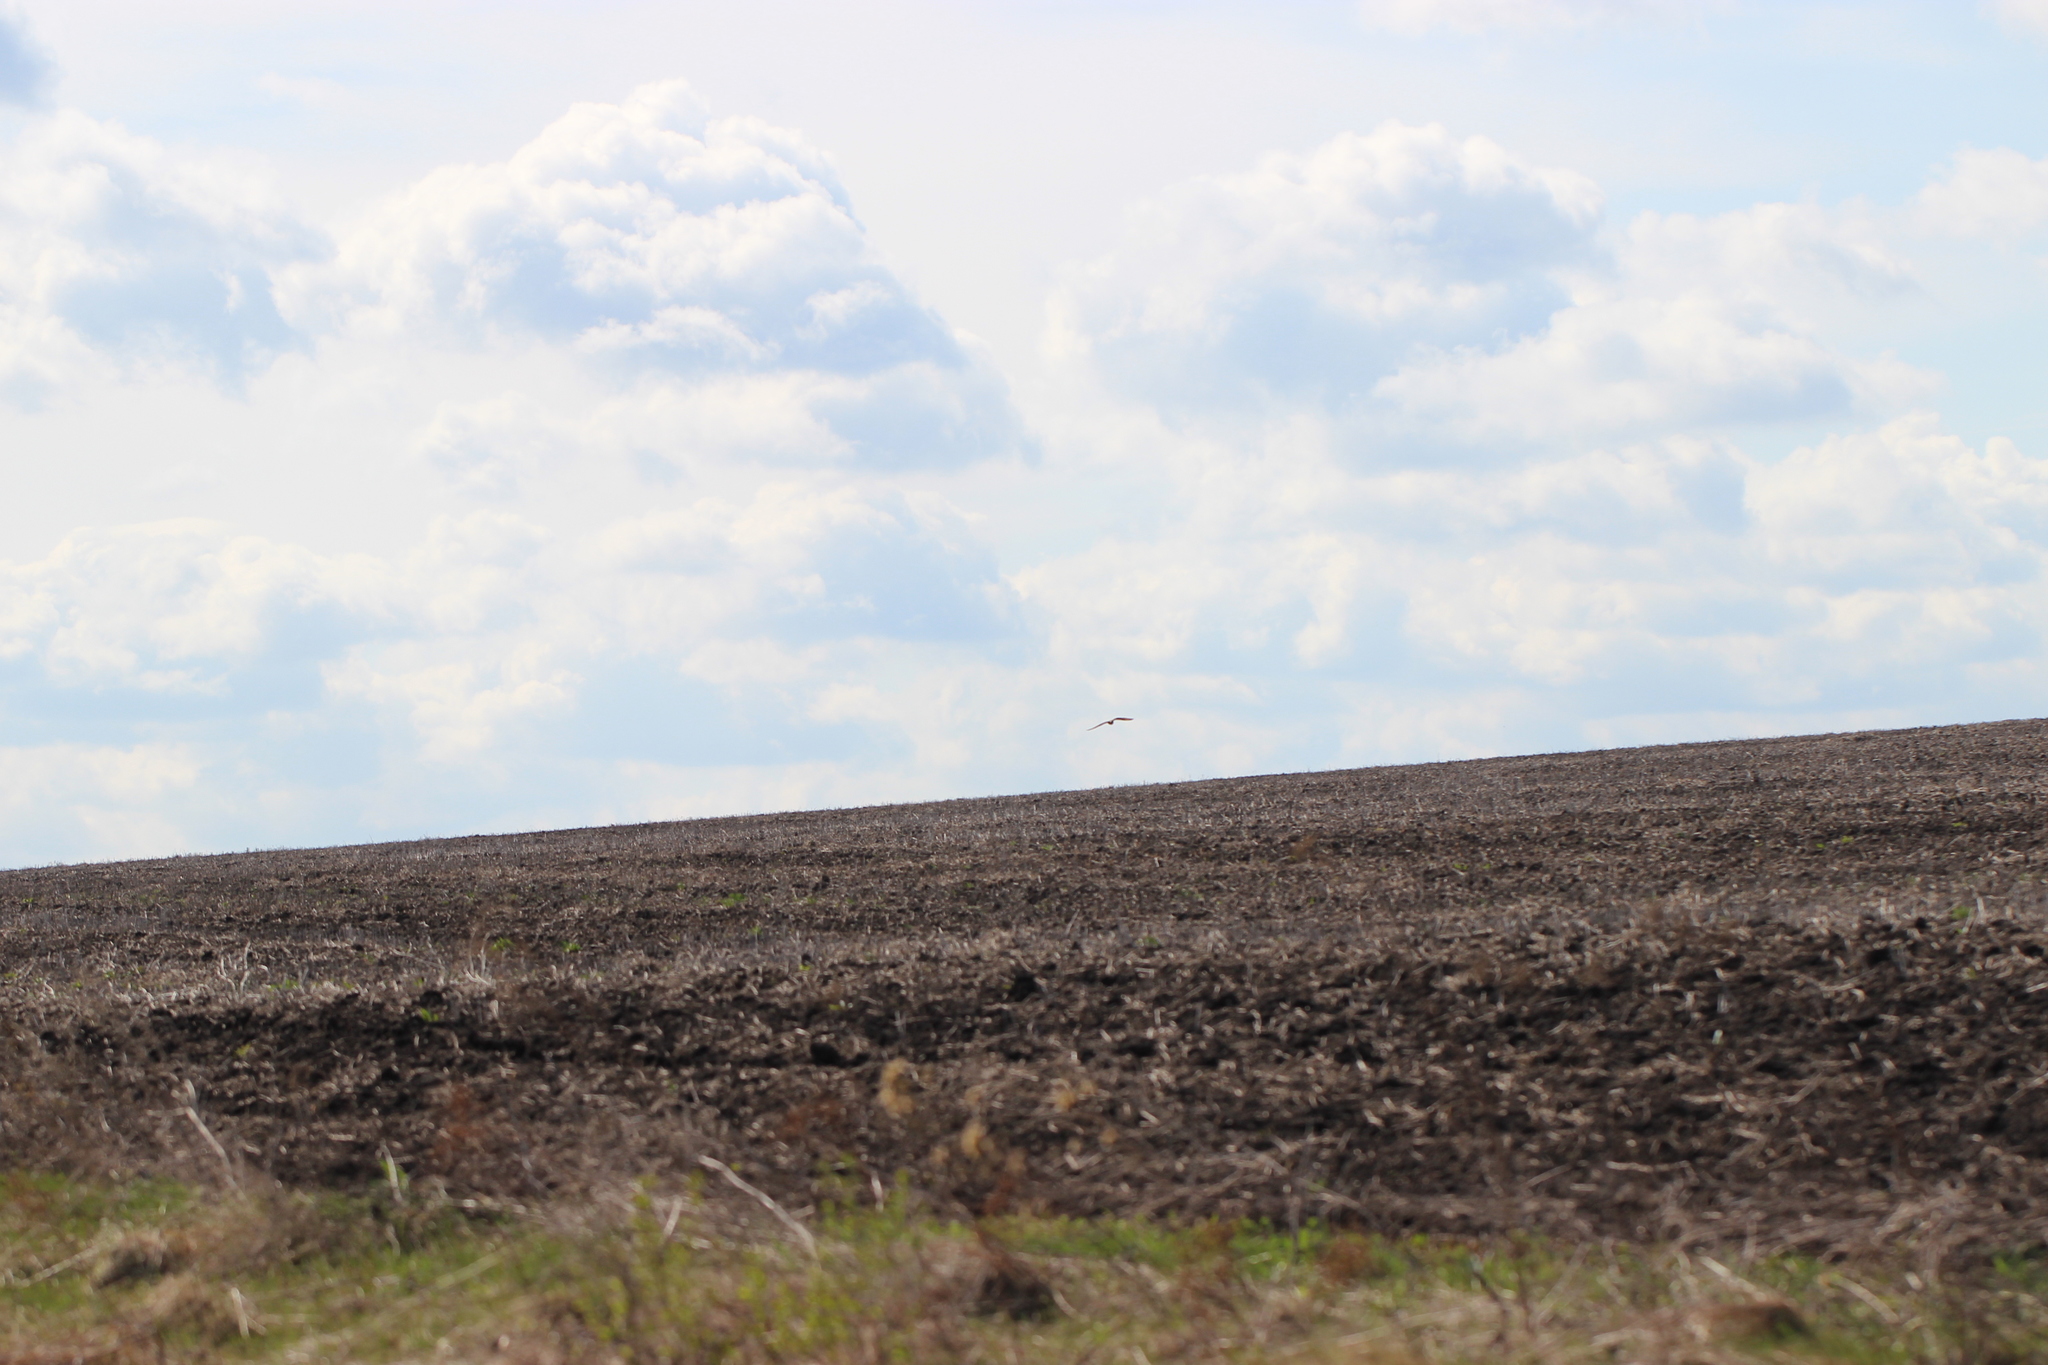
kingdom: Animalia
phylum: Chordata
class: Aves
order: Strigiformes
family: Strigidae
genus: Asio
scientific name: Asio flammeus
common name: Short-eared owl
